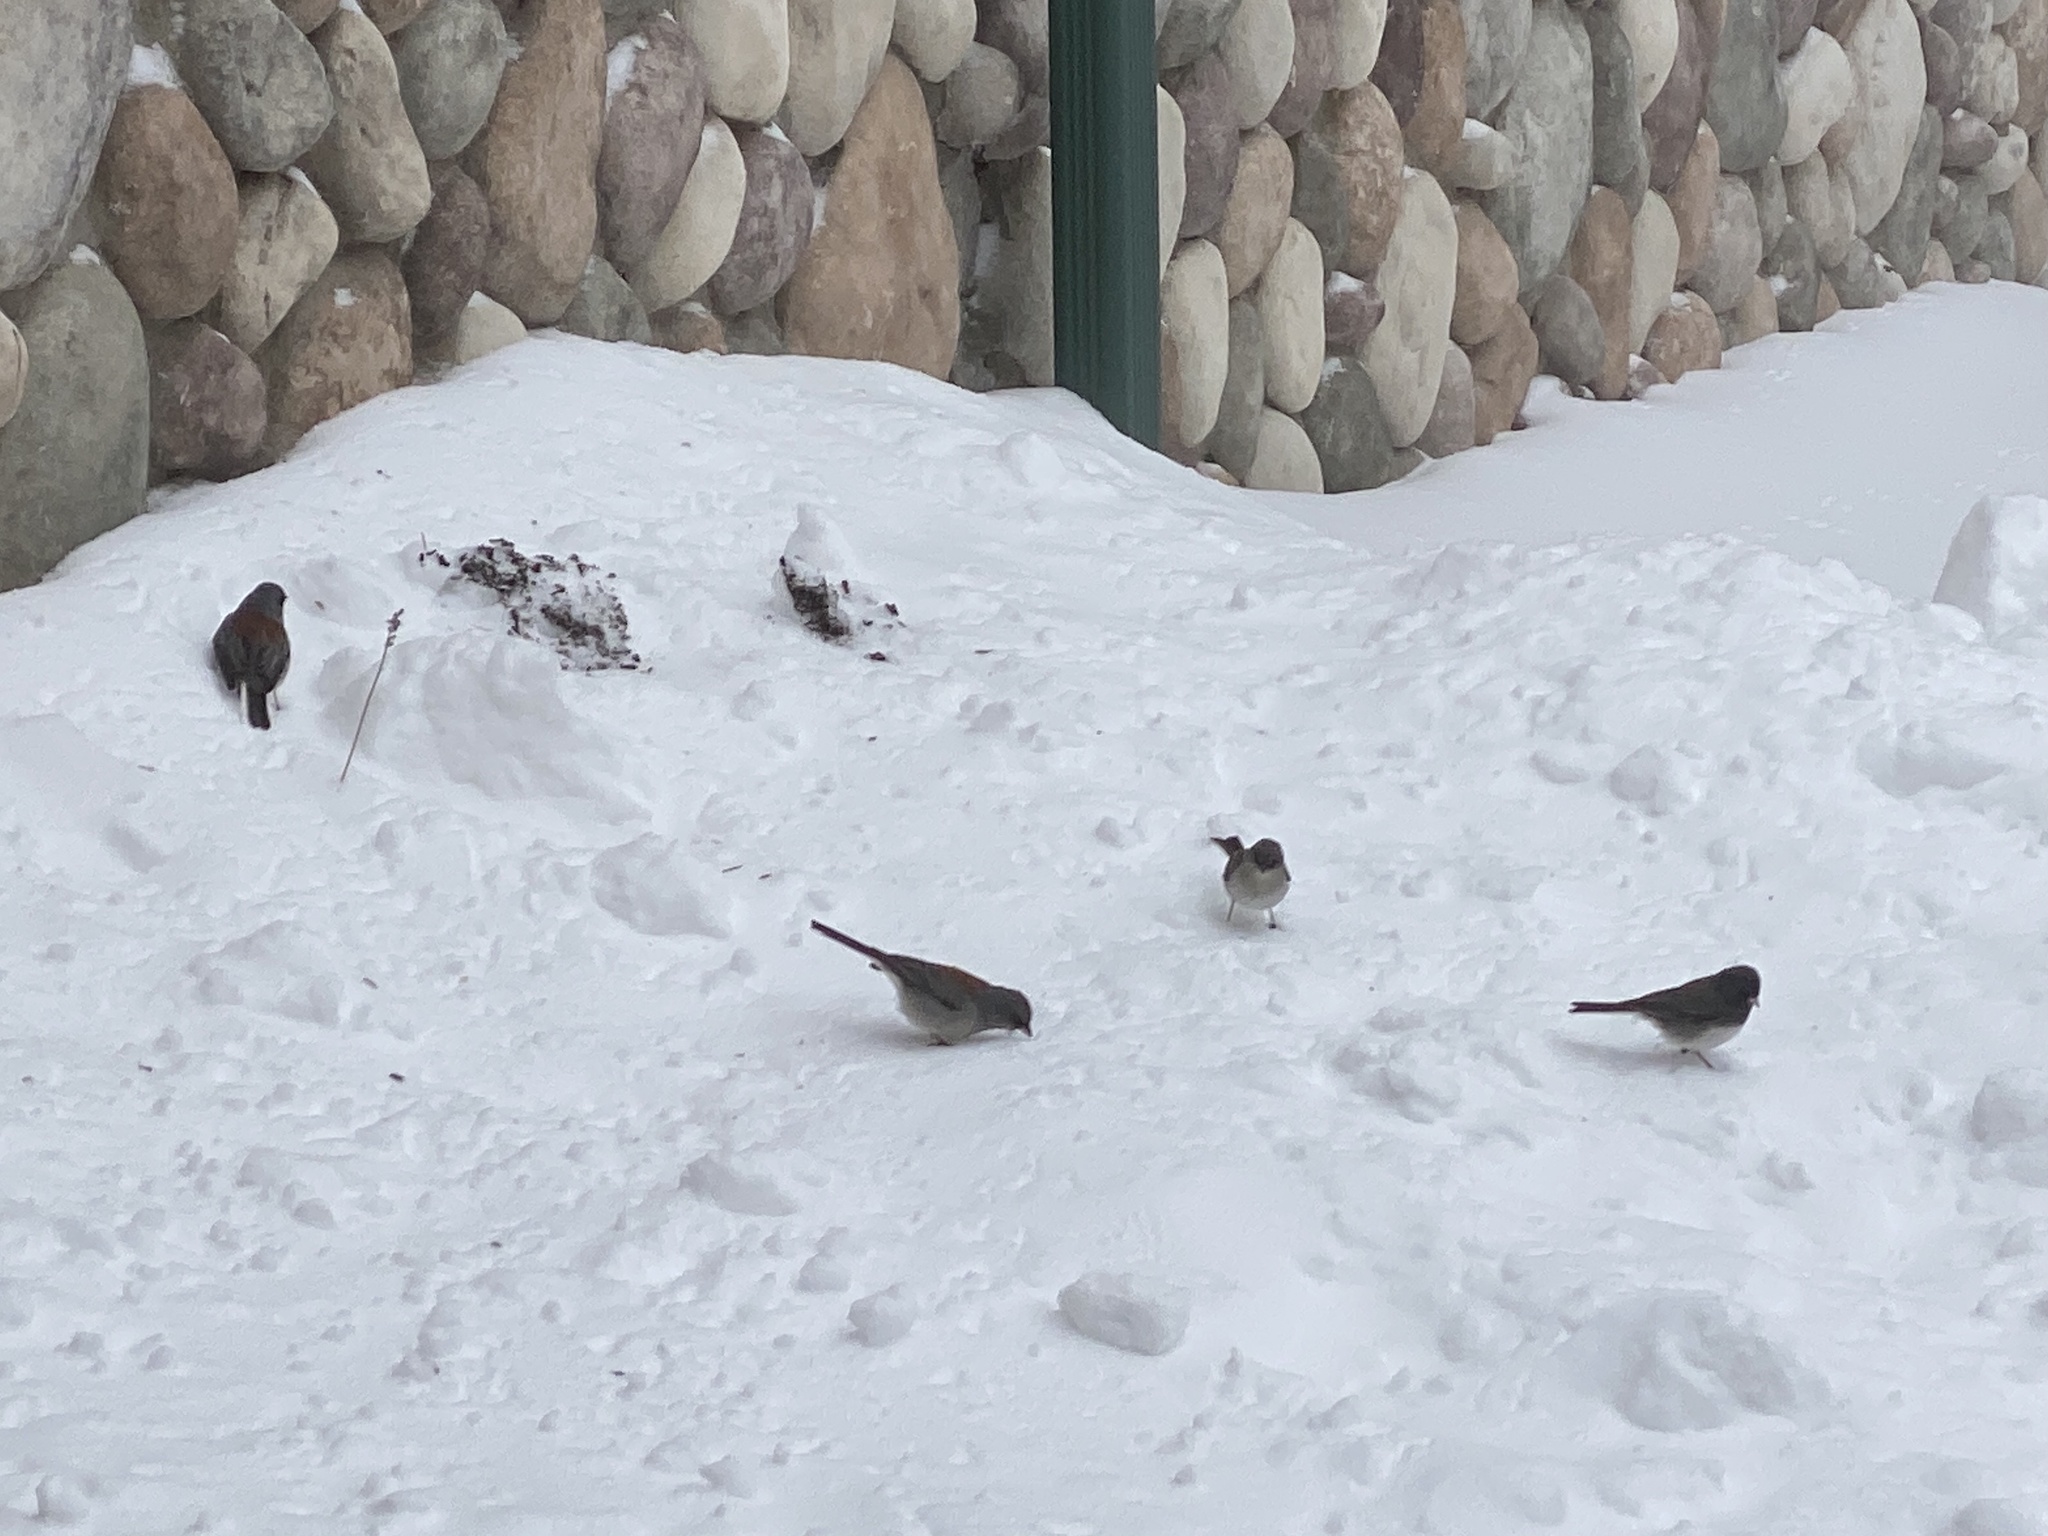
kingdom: Animalia
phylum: Chordata
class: Aves
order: Passeriformes
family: Passerellidae
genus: Junco
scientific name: Junco hyemalis
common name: Dark-eyed junco
